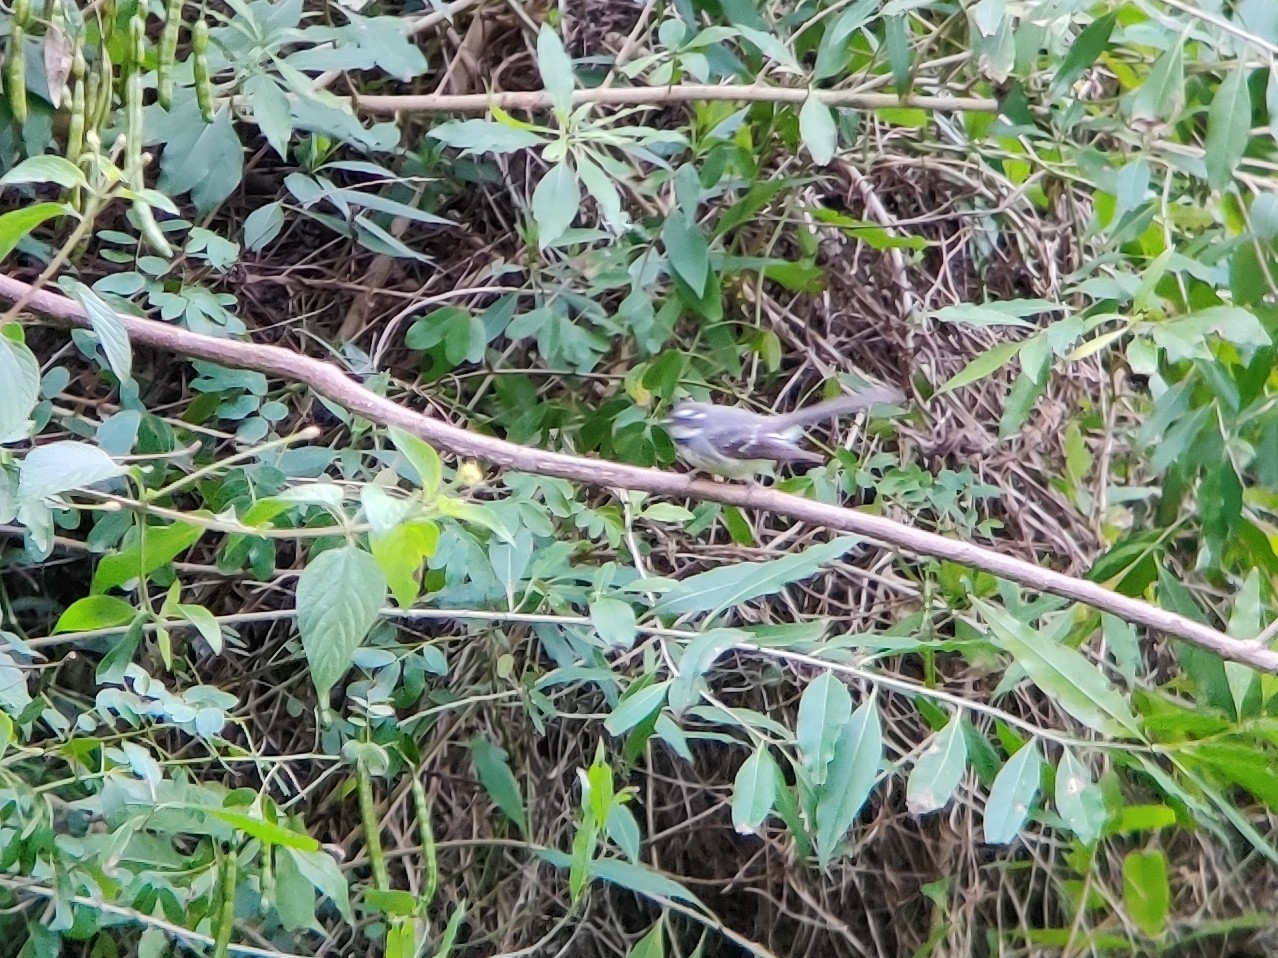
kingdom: Animalia
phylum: Chordata
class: Aves
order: Passeriformes
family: Rhipiduridae
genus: Rhipidura
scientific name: Rhipidura albiscapa
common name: Grey fantail
